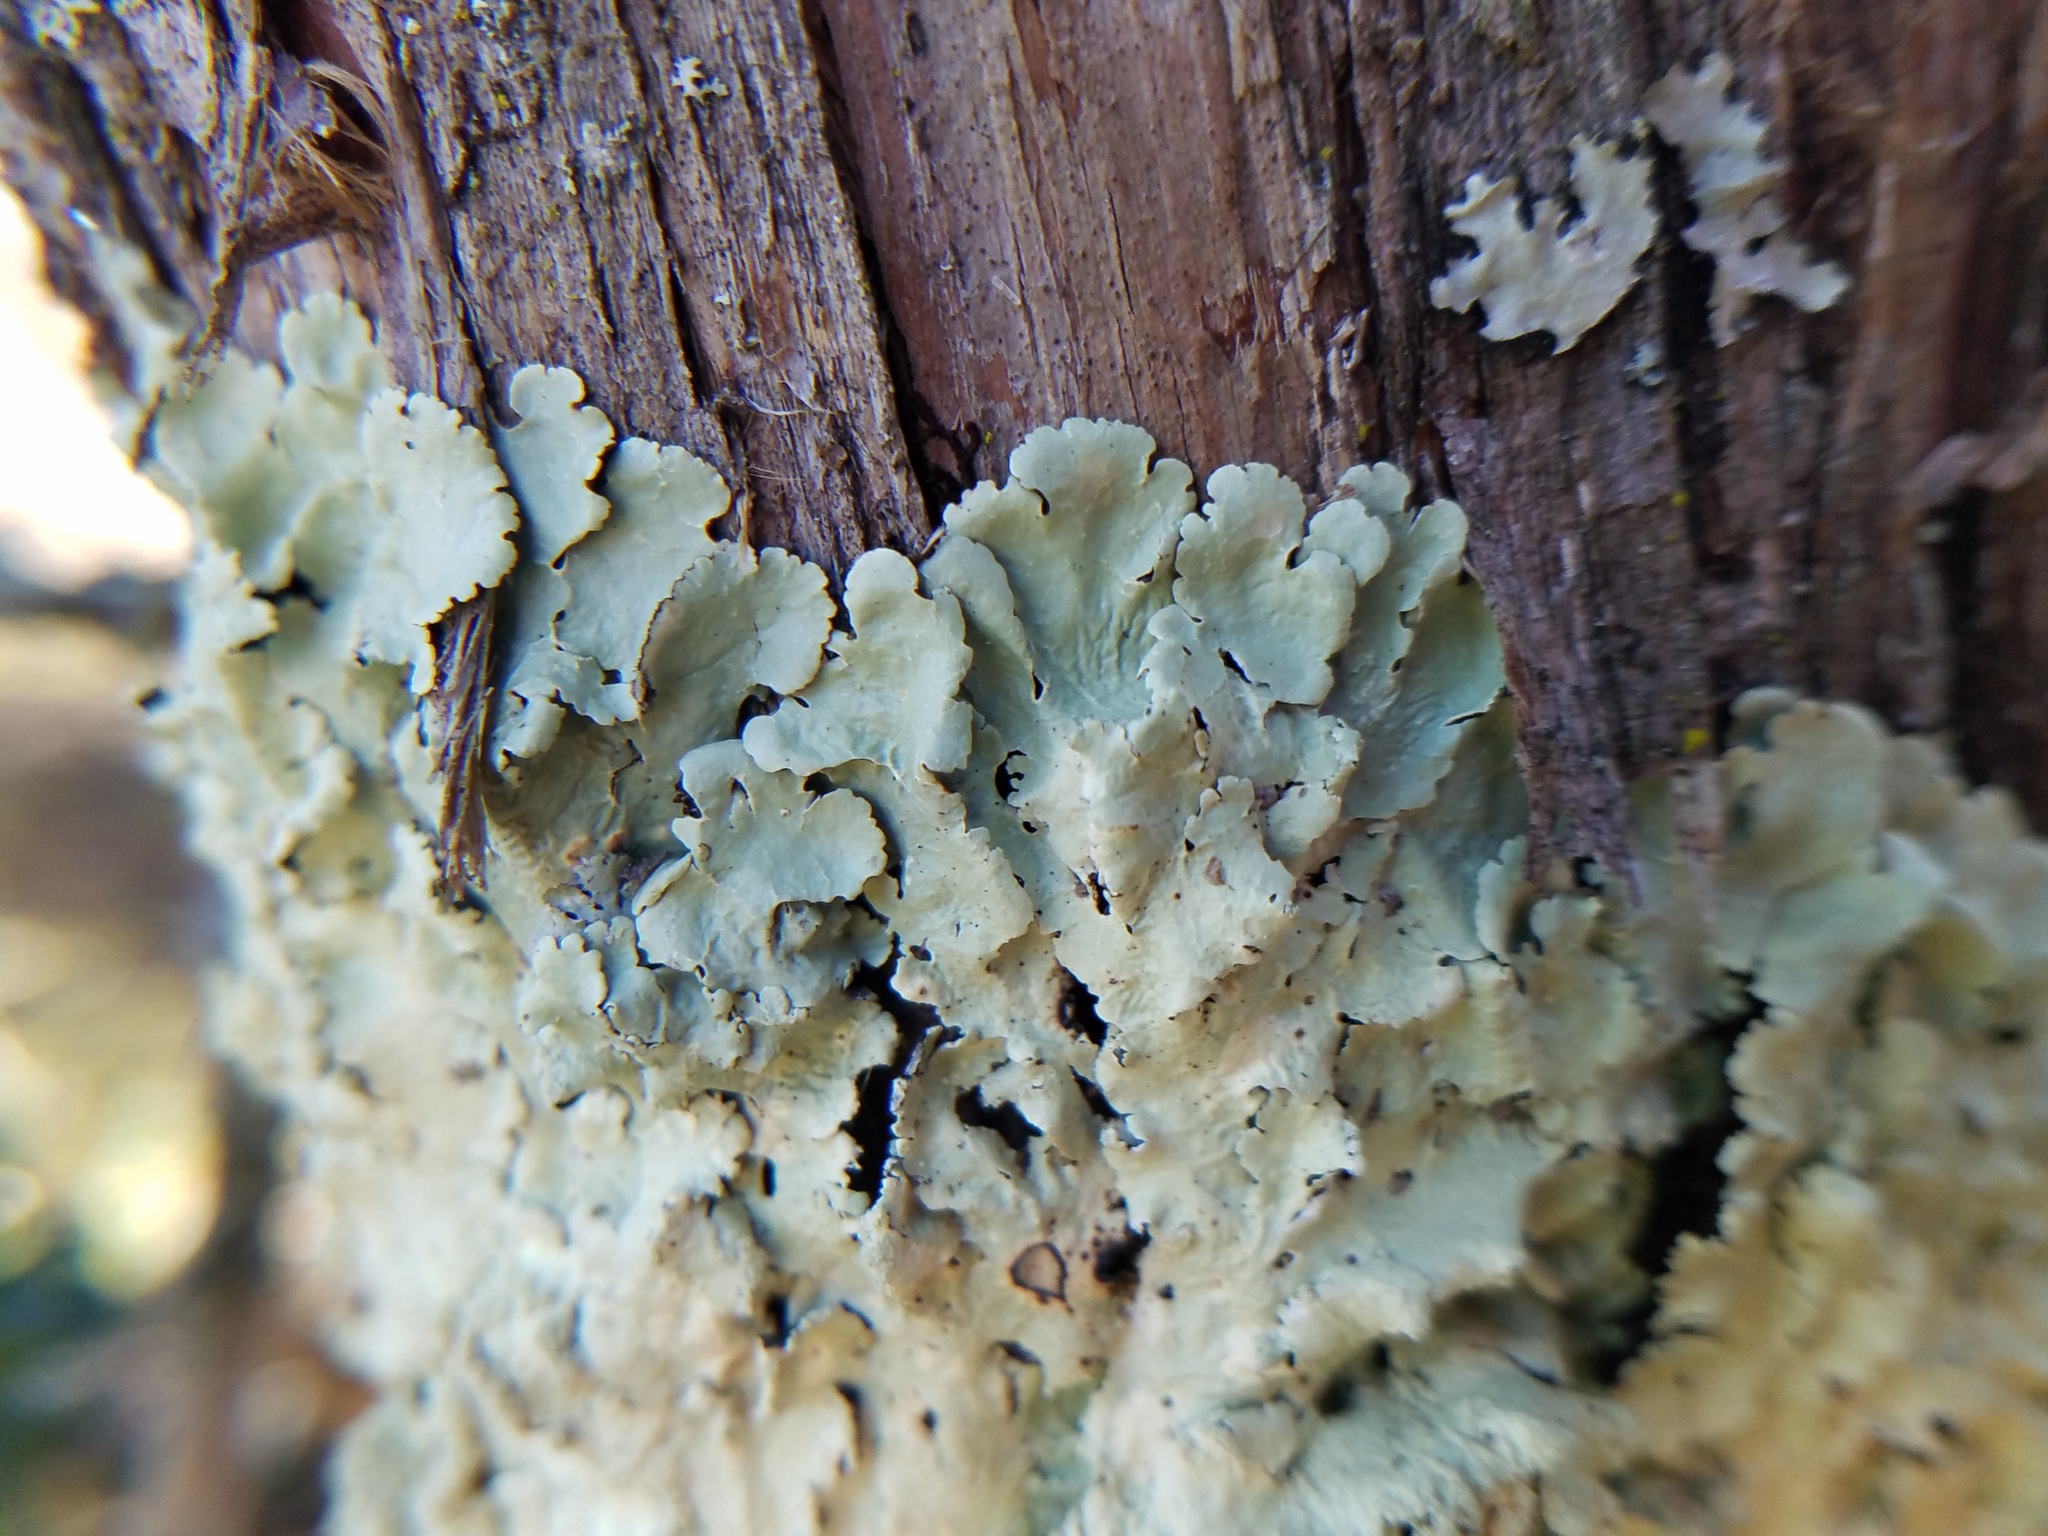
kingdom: Fungi
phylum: Ascomycota
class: Lecanoromycetes
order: Lecanorales
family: Parmeliaceae
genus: Flavoparmelia
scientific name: Flavoparmelia caperata
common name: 40-mile per hour lichen
